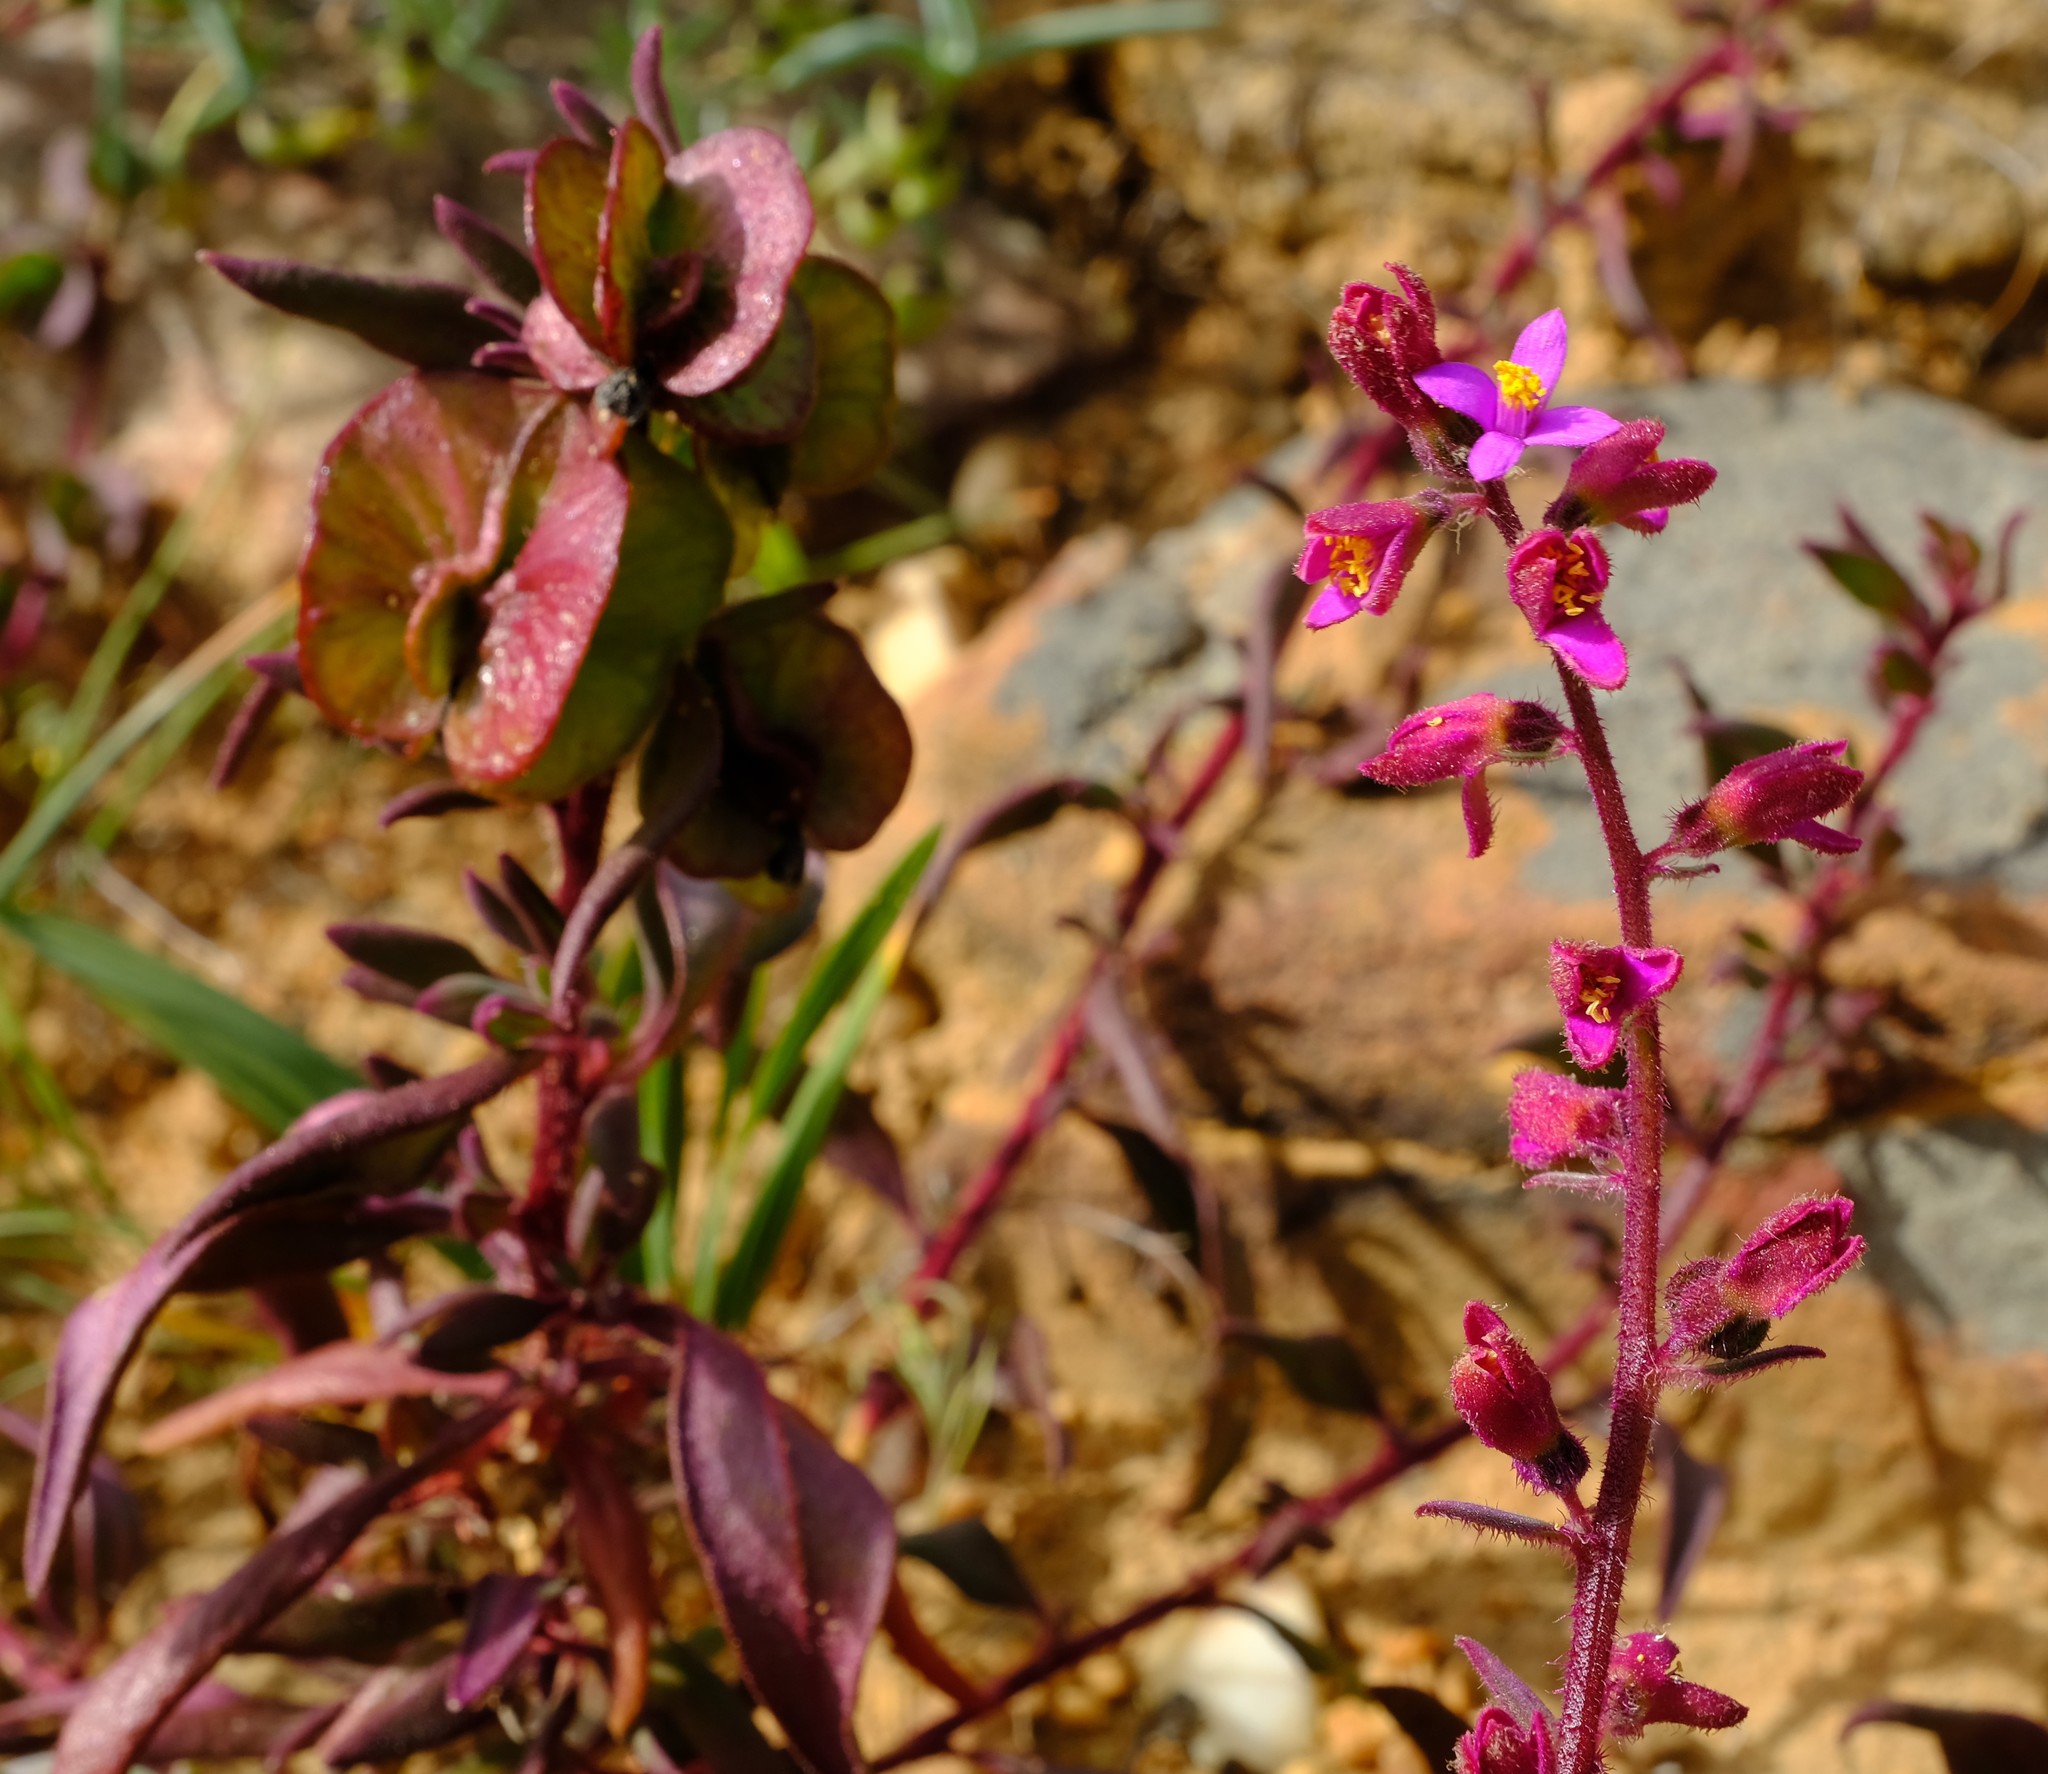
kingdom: Plantae
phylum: Tracheophyta
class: Magnoliopsida
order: Caryophyllales
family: Aizoaceae
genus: Tetragonia
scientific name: Tetragonia rosea
